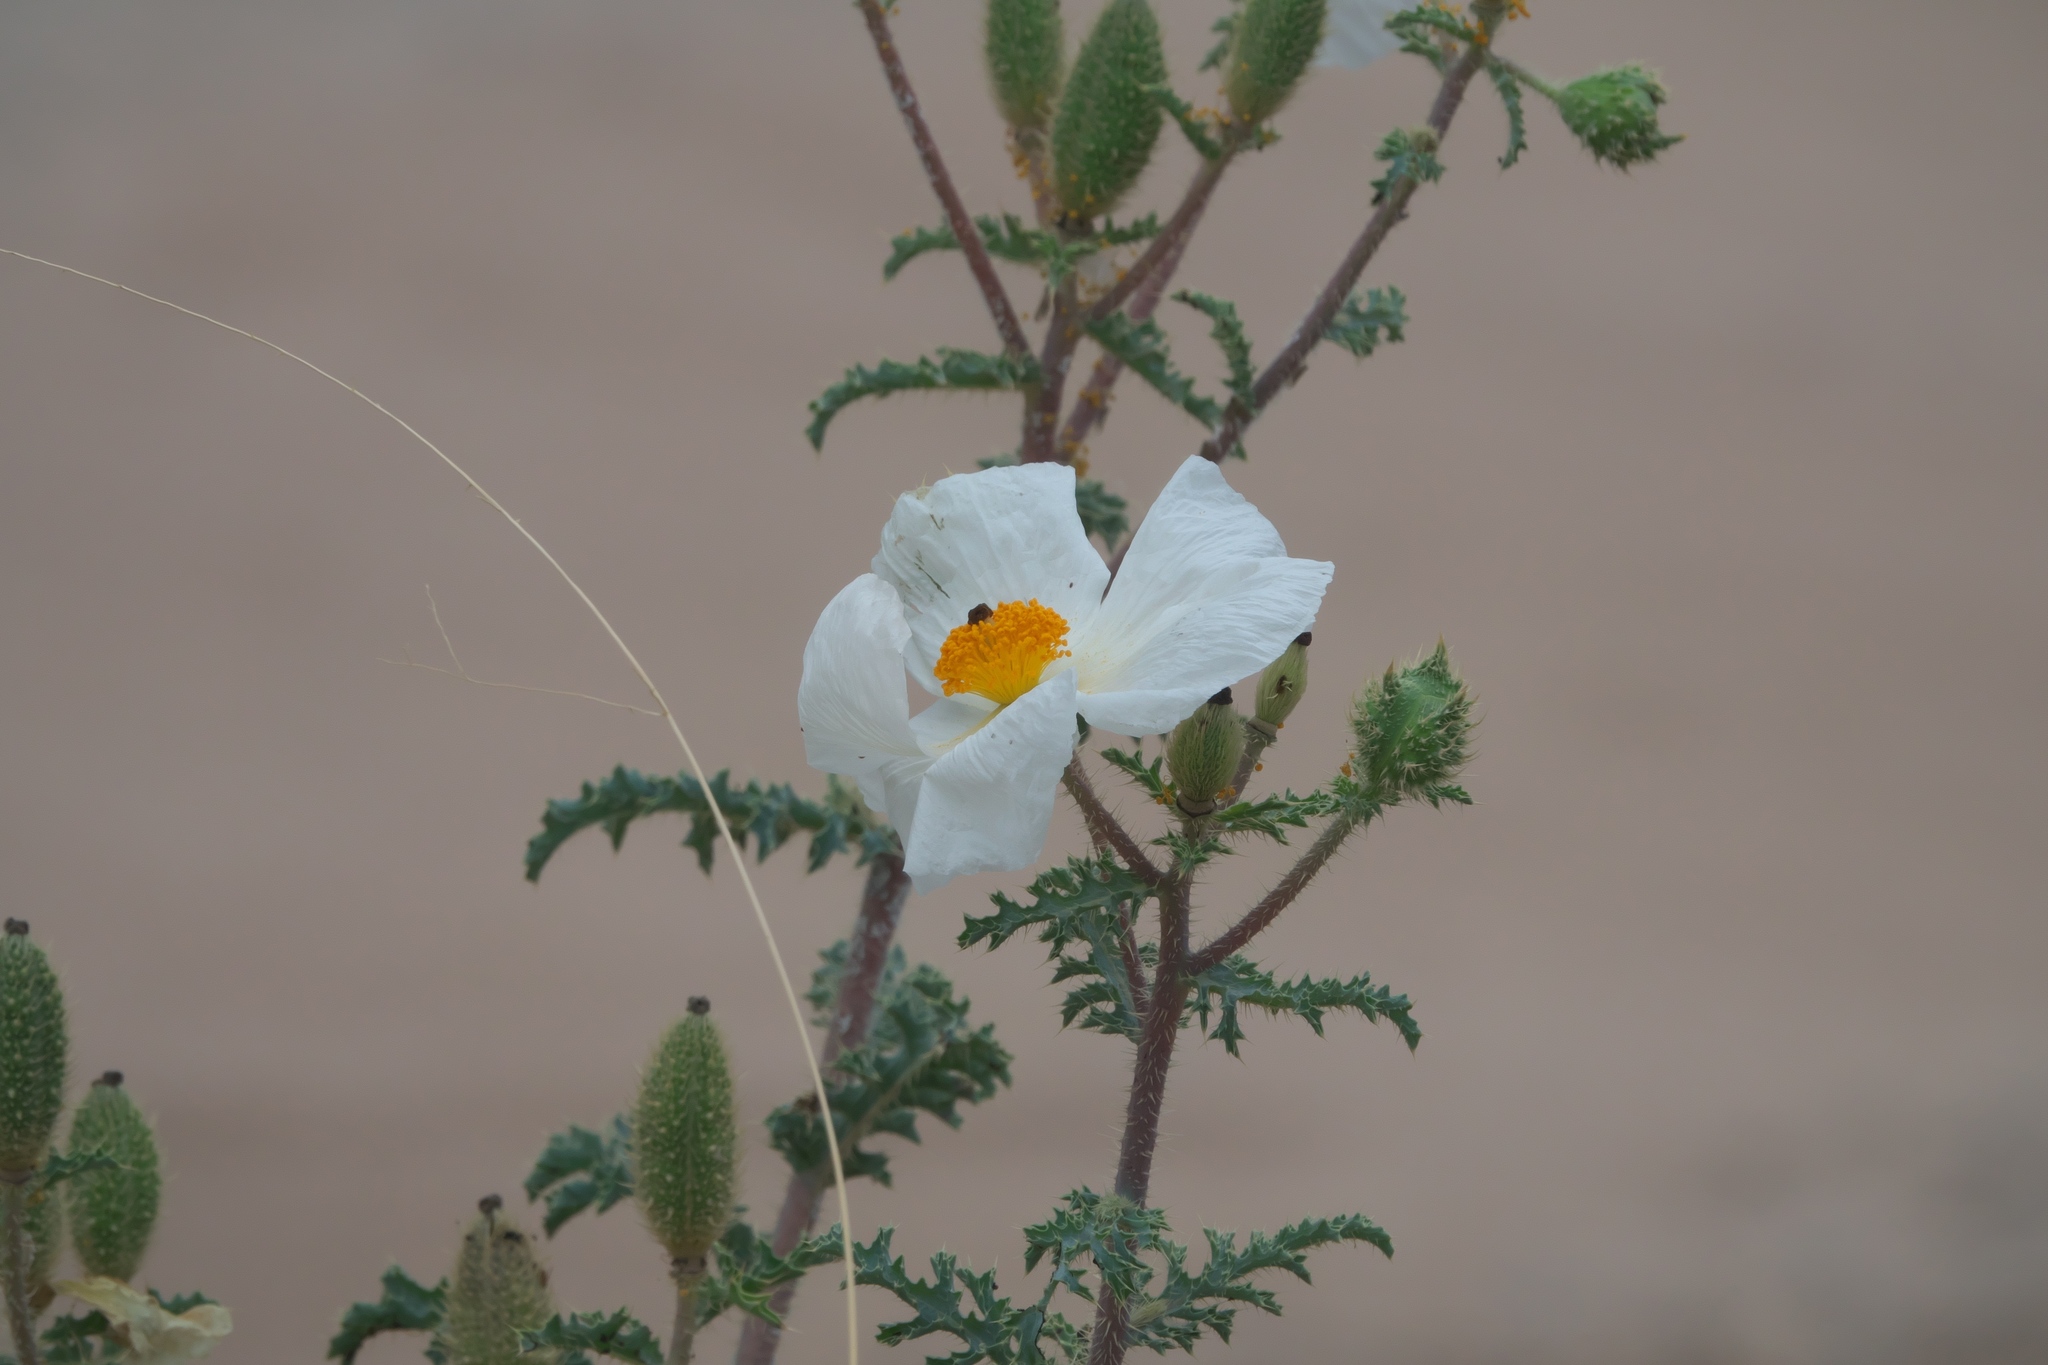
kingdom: Plantae
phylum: Tracheophyta
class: Magnoliopsida
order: Ranunculales
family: Papaveraceae
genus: Argemone
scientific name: Argemone pleiacantha
